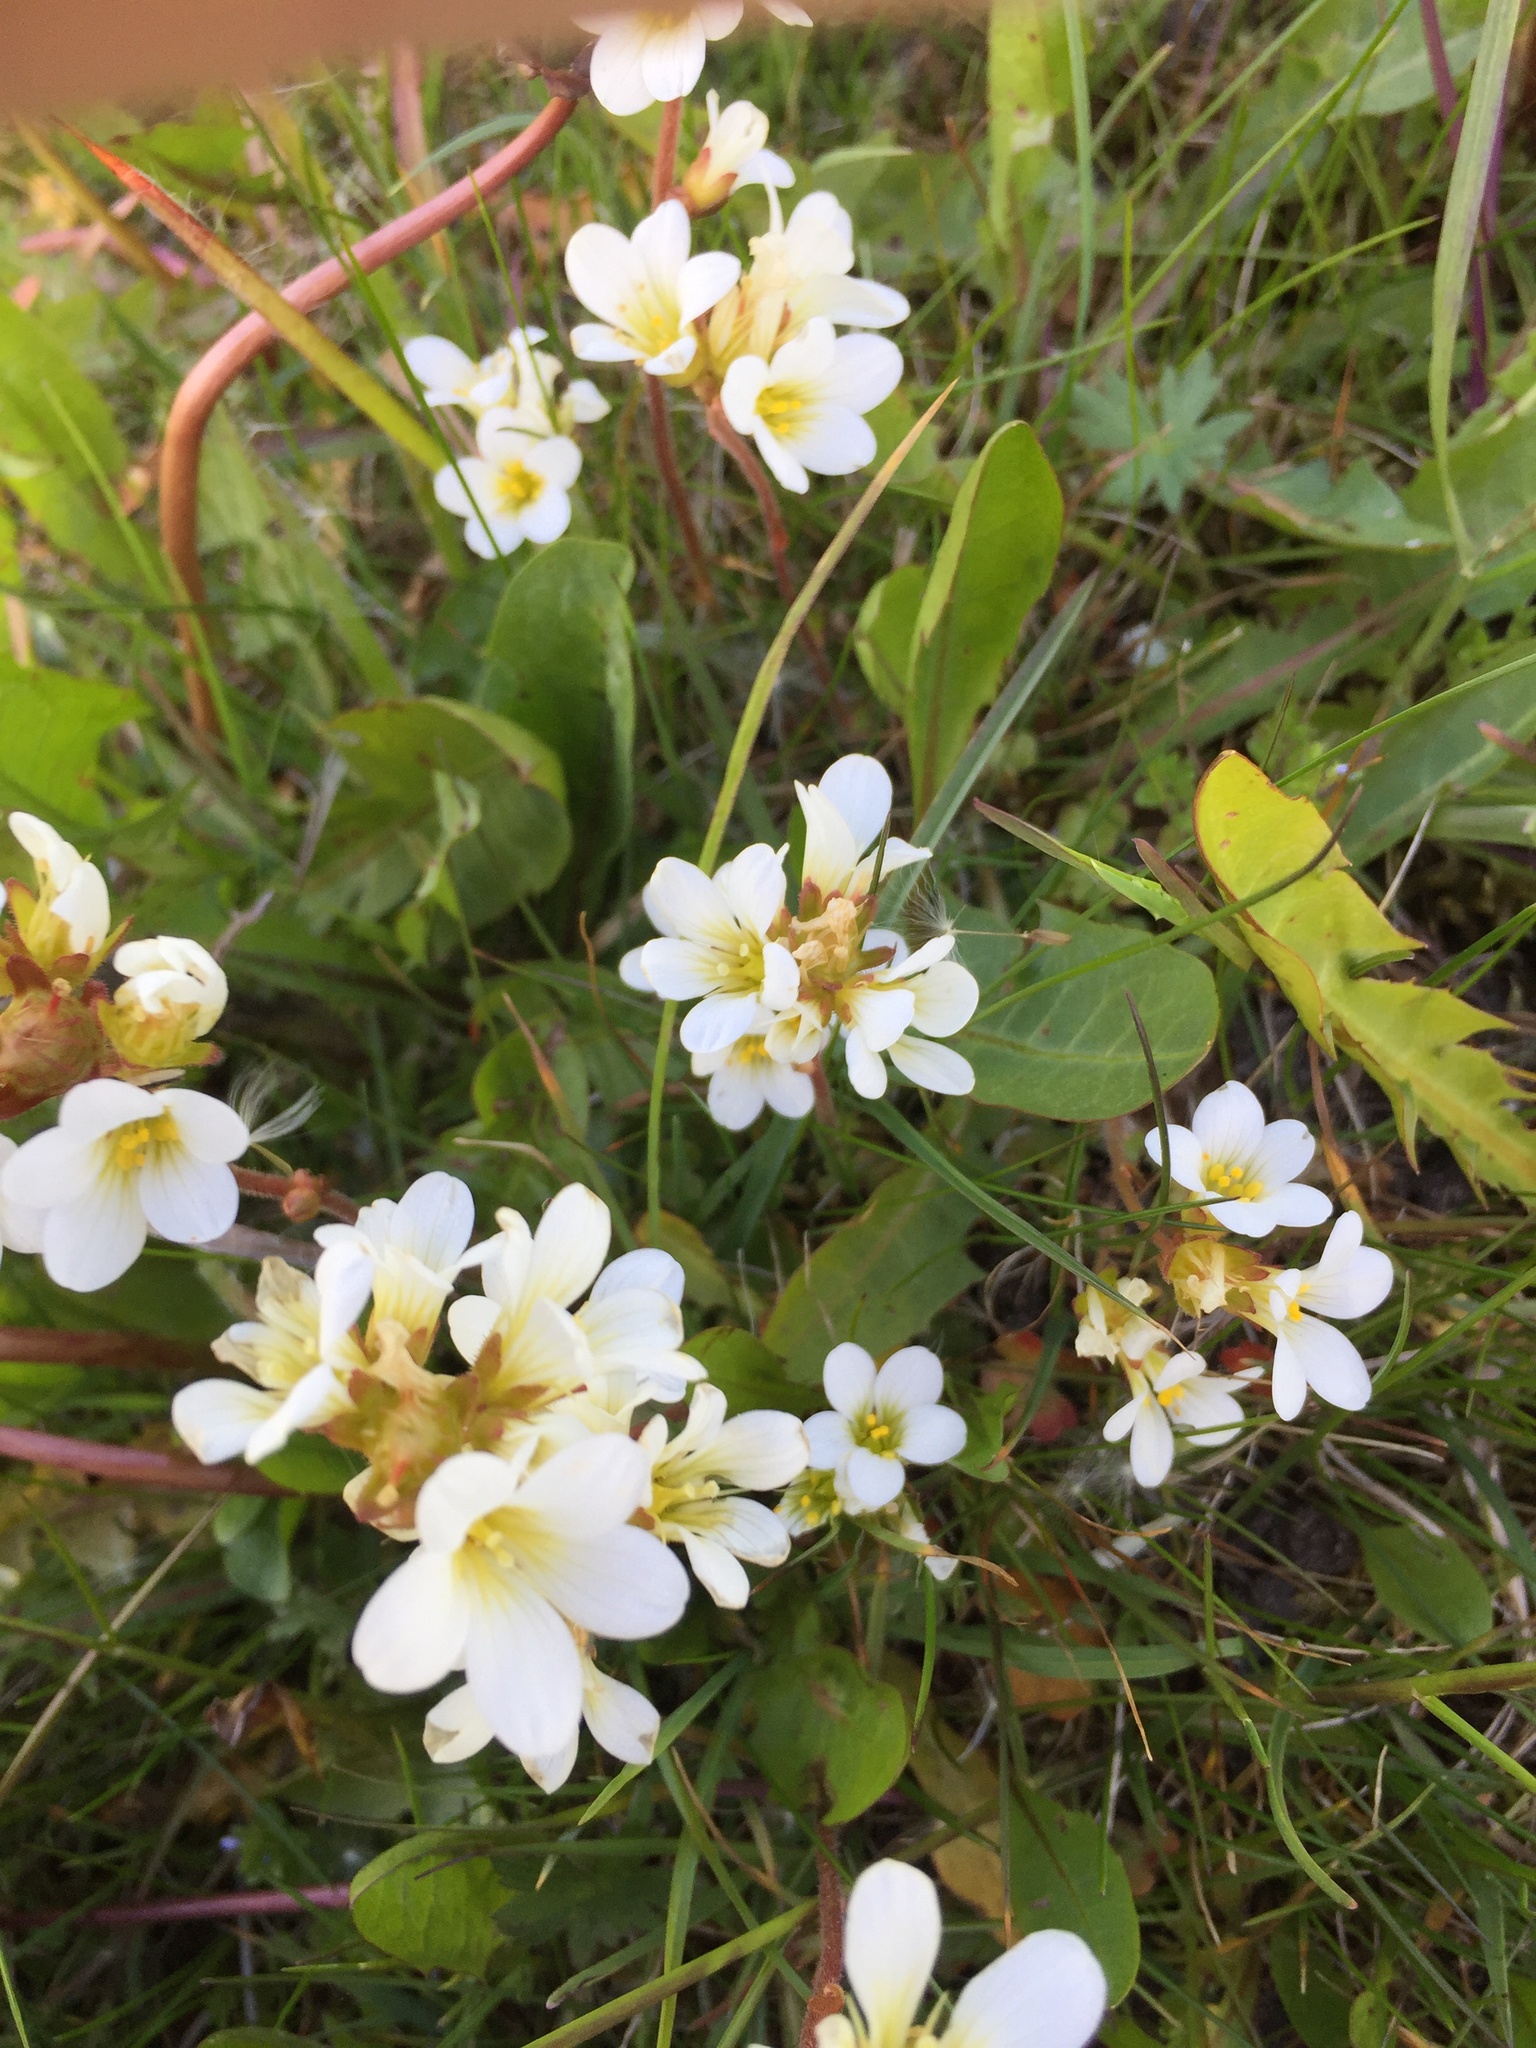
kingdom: Plantae
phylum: Tracheophyta
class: Magnoliopsida
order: Saxifragales
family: Saxifragaceae
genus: Saxifraga
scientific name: Saxifraga granulata
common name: Meadow saxifrage
